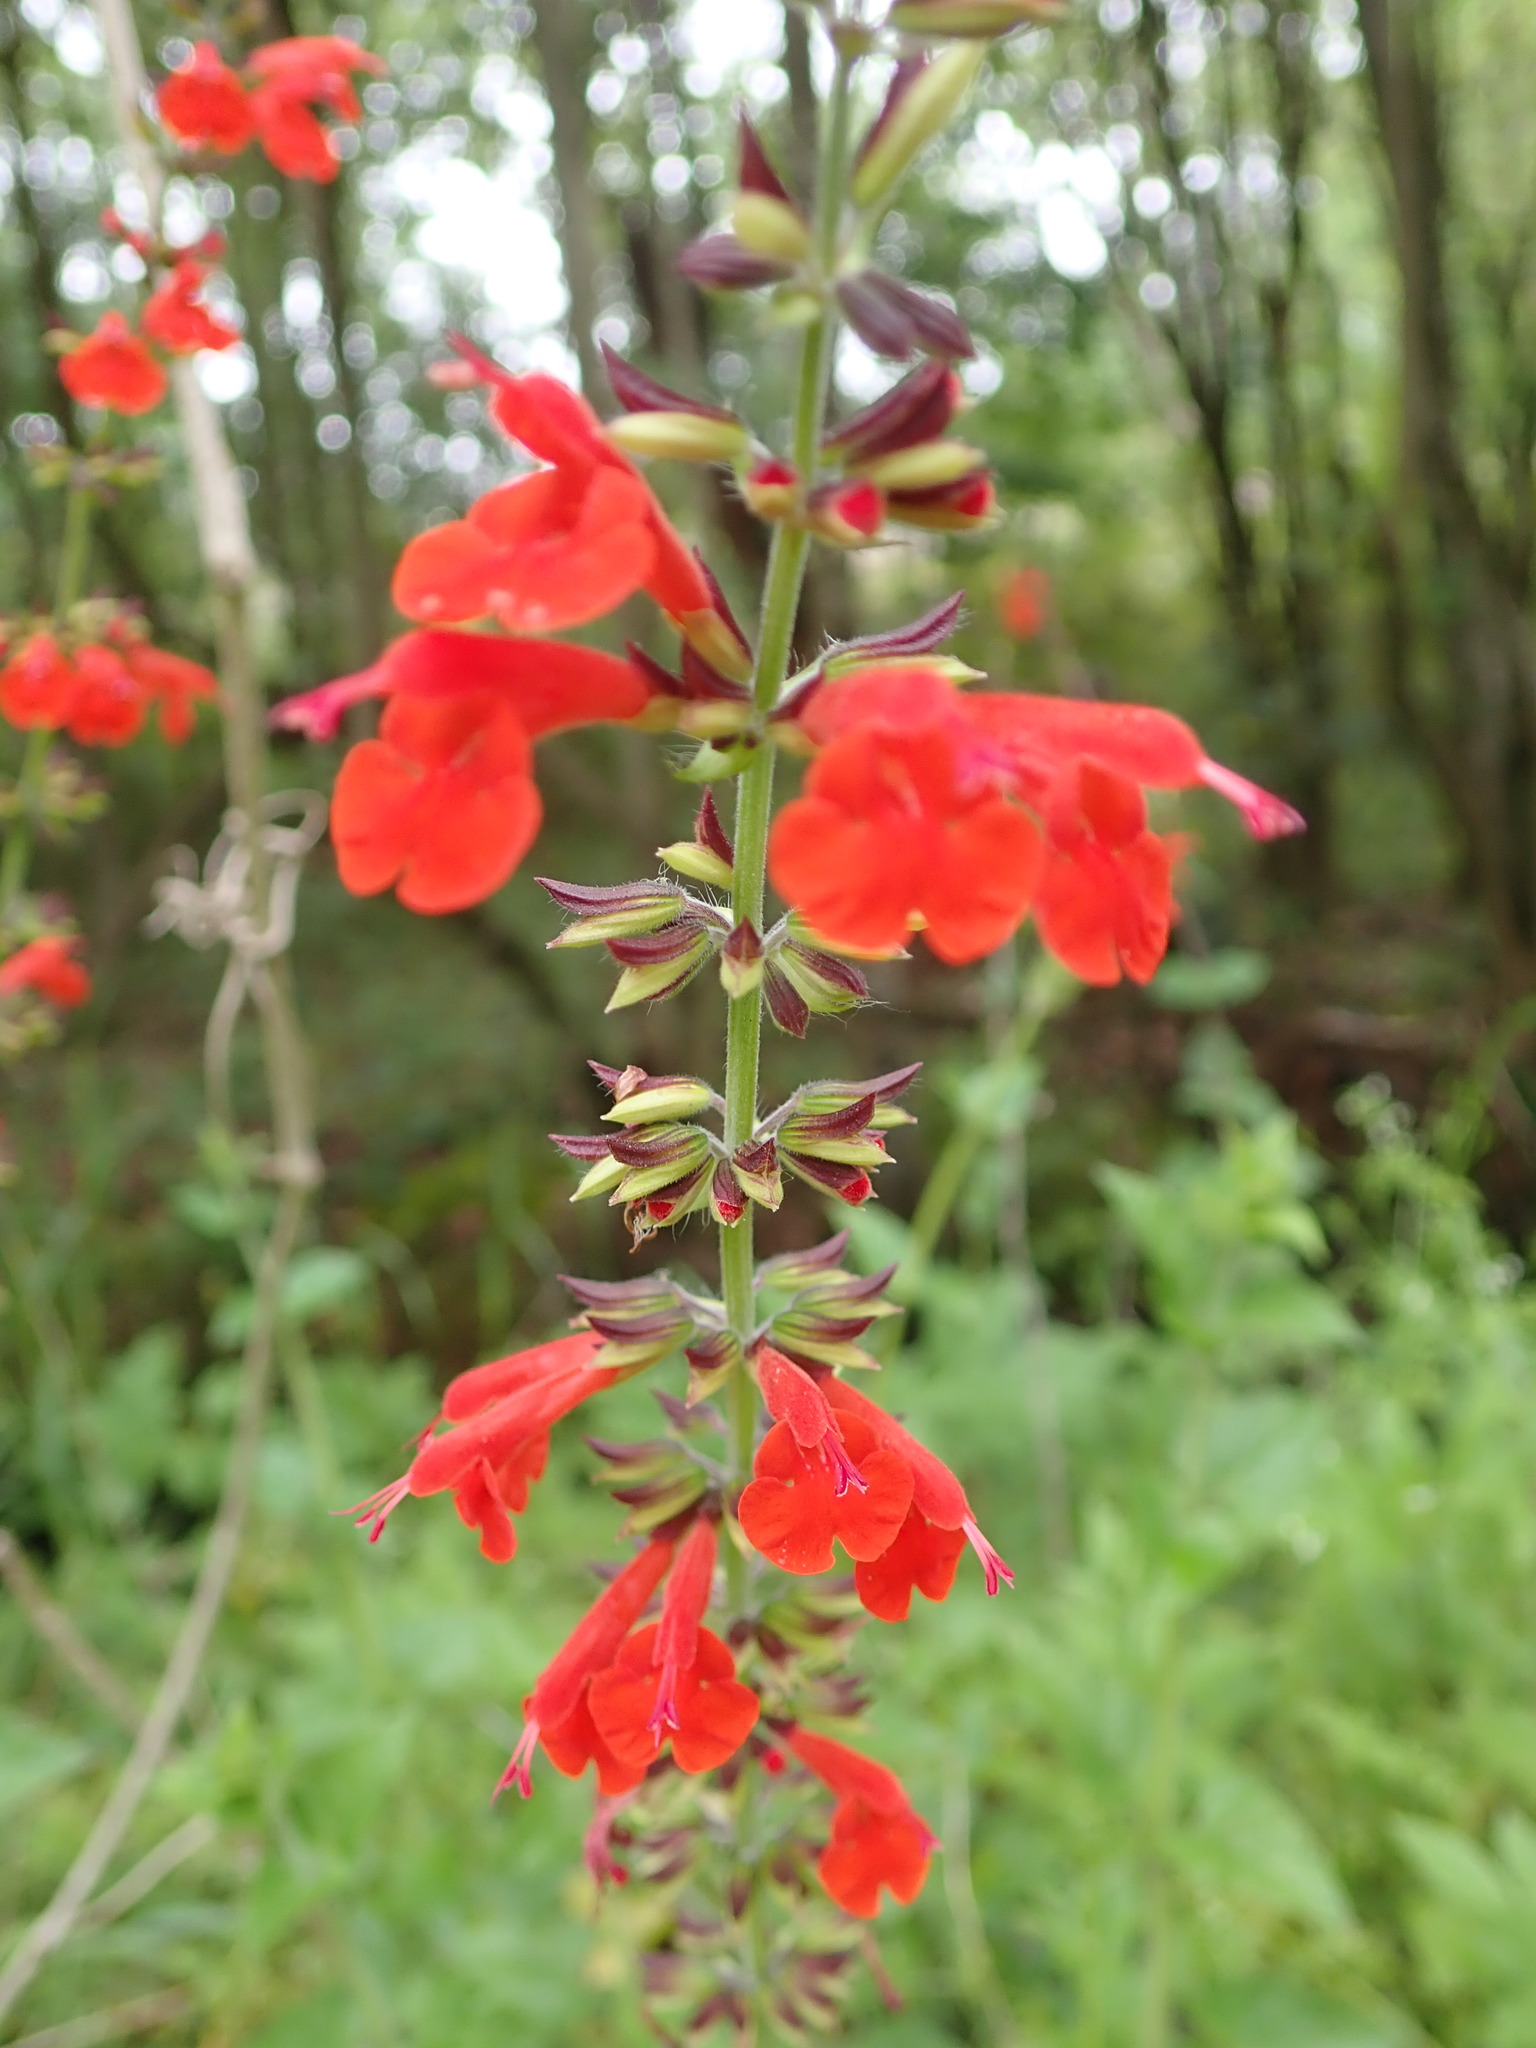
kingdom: Plantae
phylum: Tracheophyta
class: Magnoliopsida
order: Lamiales
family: Lamiaceae
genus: Salvia
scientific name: Salvia coccinea
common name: Blood sage
